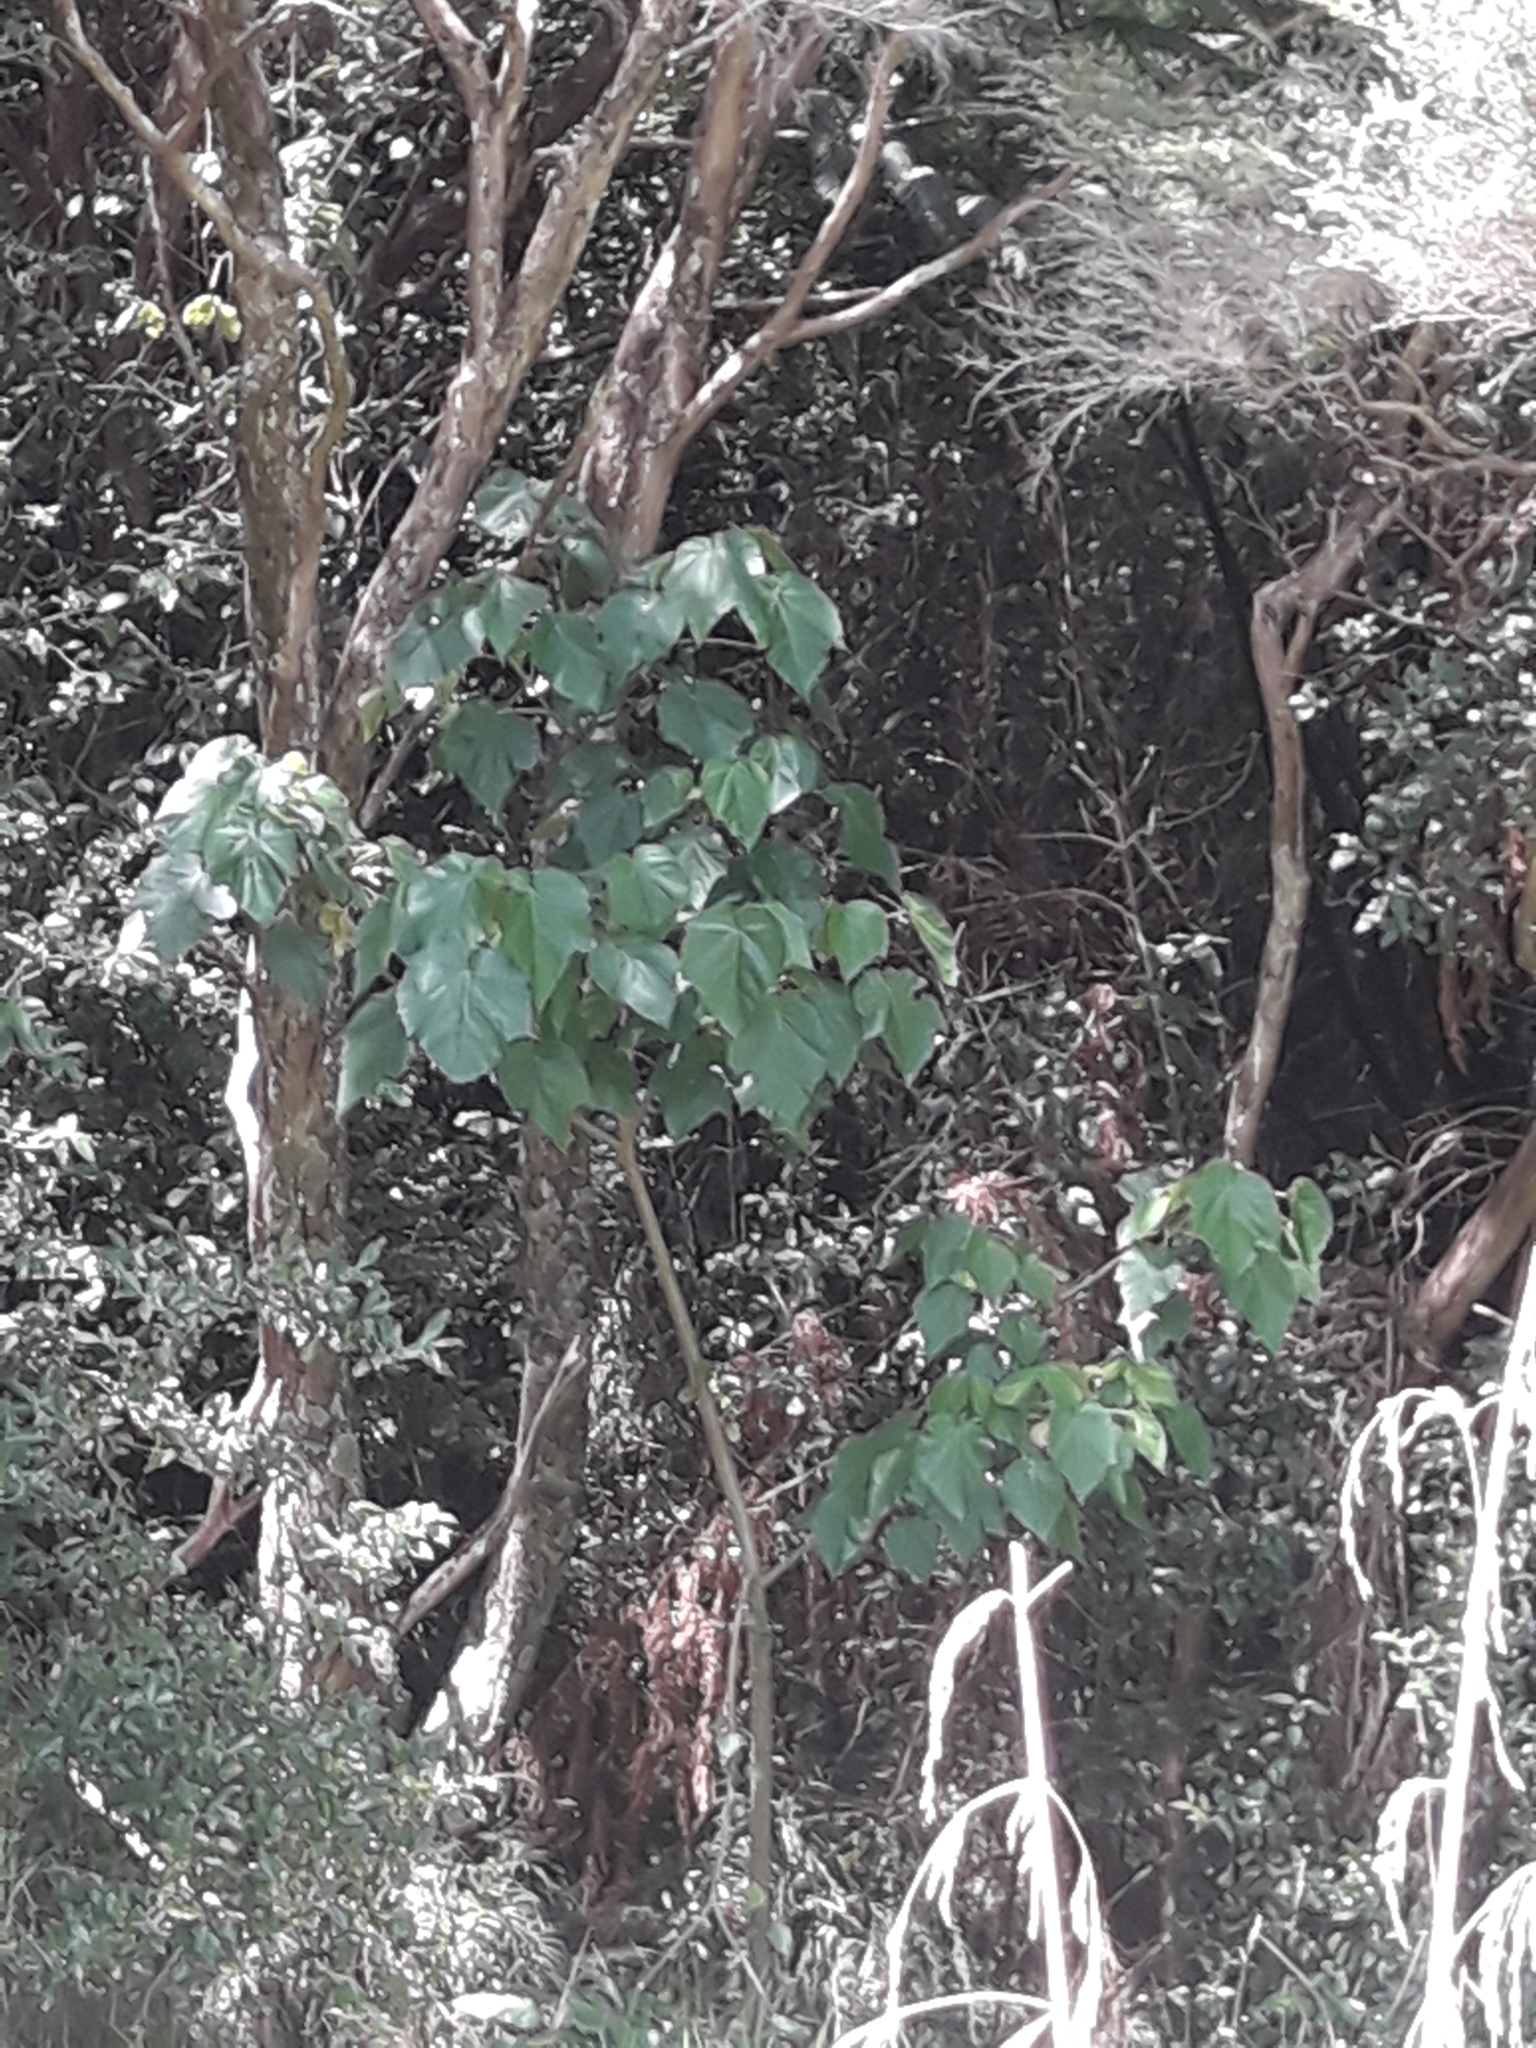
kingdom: Plantae
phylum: Tracheophyta
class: Magnoliopsida
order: Malvales
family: Malvaceae
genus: Entelea
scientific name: Entelea arborescens
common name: New zealand-mulberry
